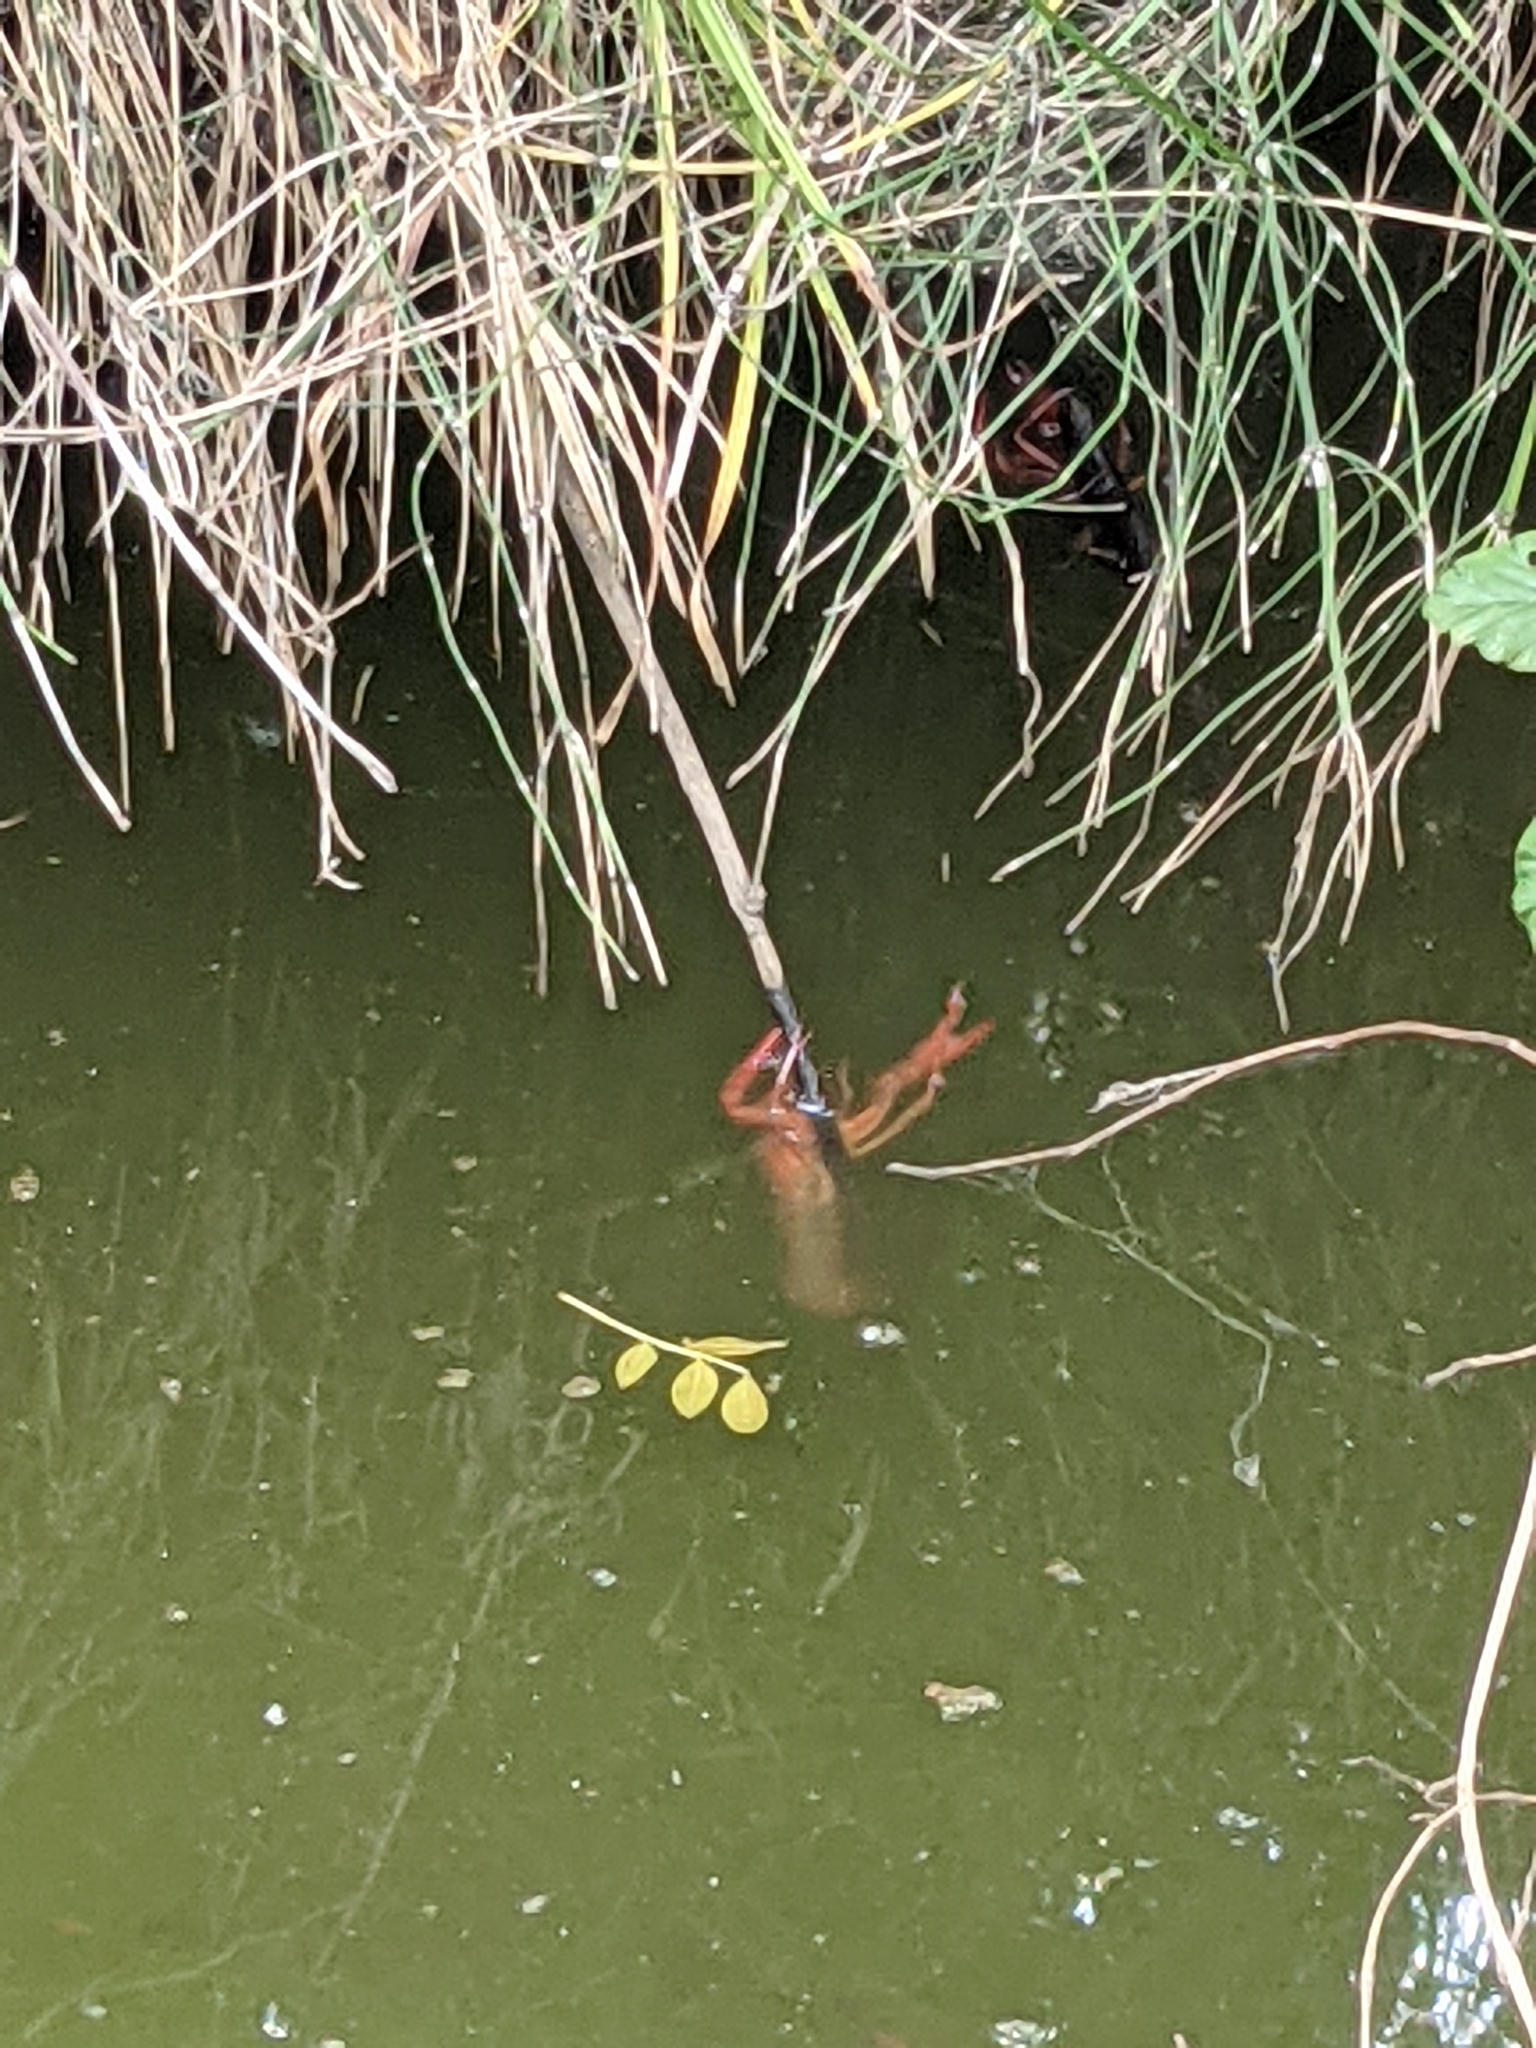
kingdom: Animalia
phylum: Arthropoda
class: Malacostraca
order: Decapoda
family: Cambaridae
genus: Procambarus
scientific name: Procambarus clarkii
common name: Red swamp crayfish
